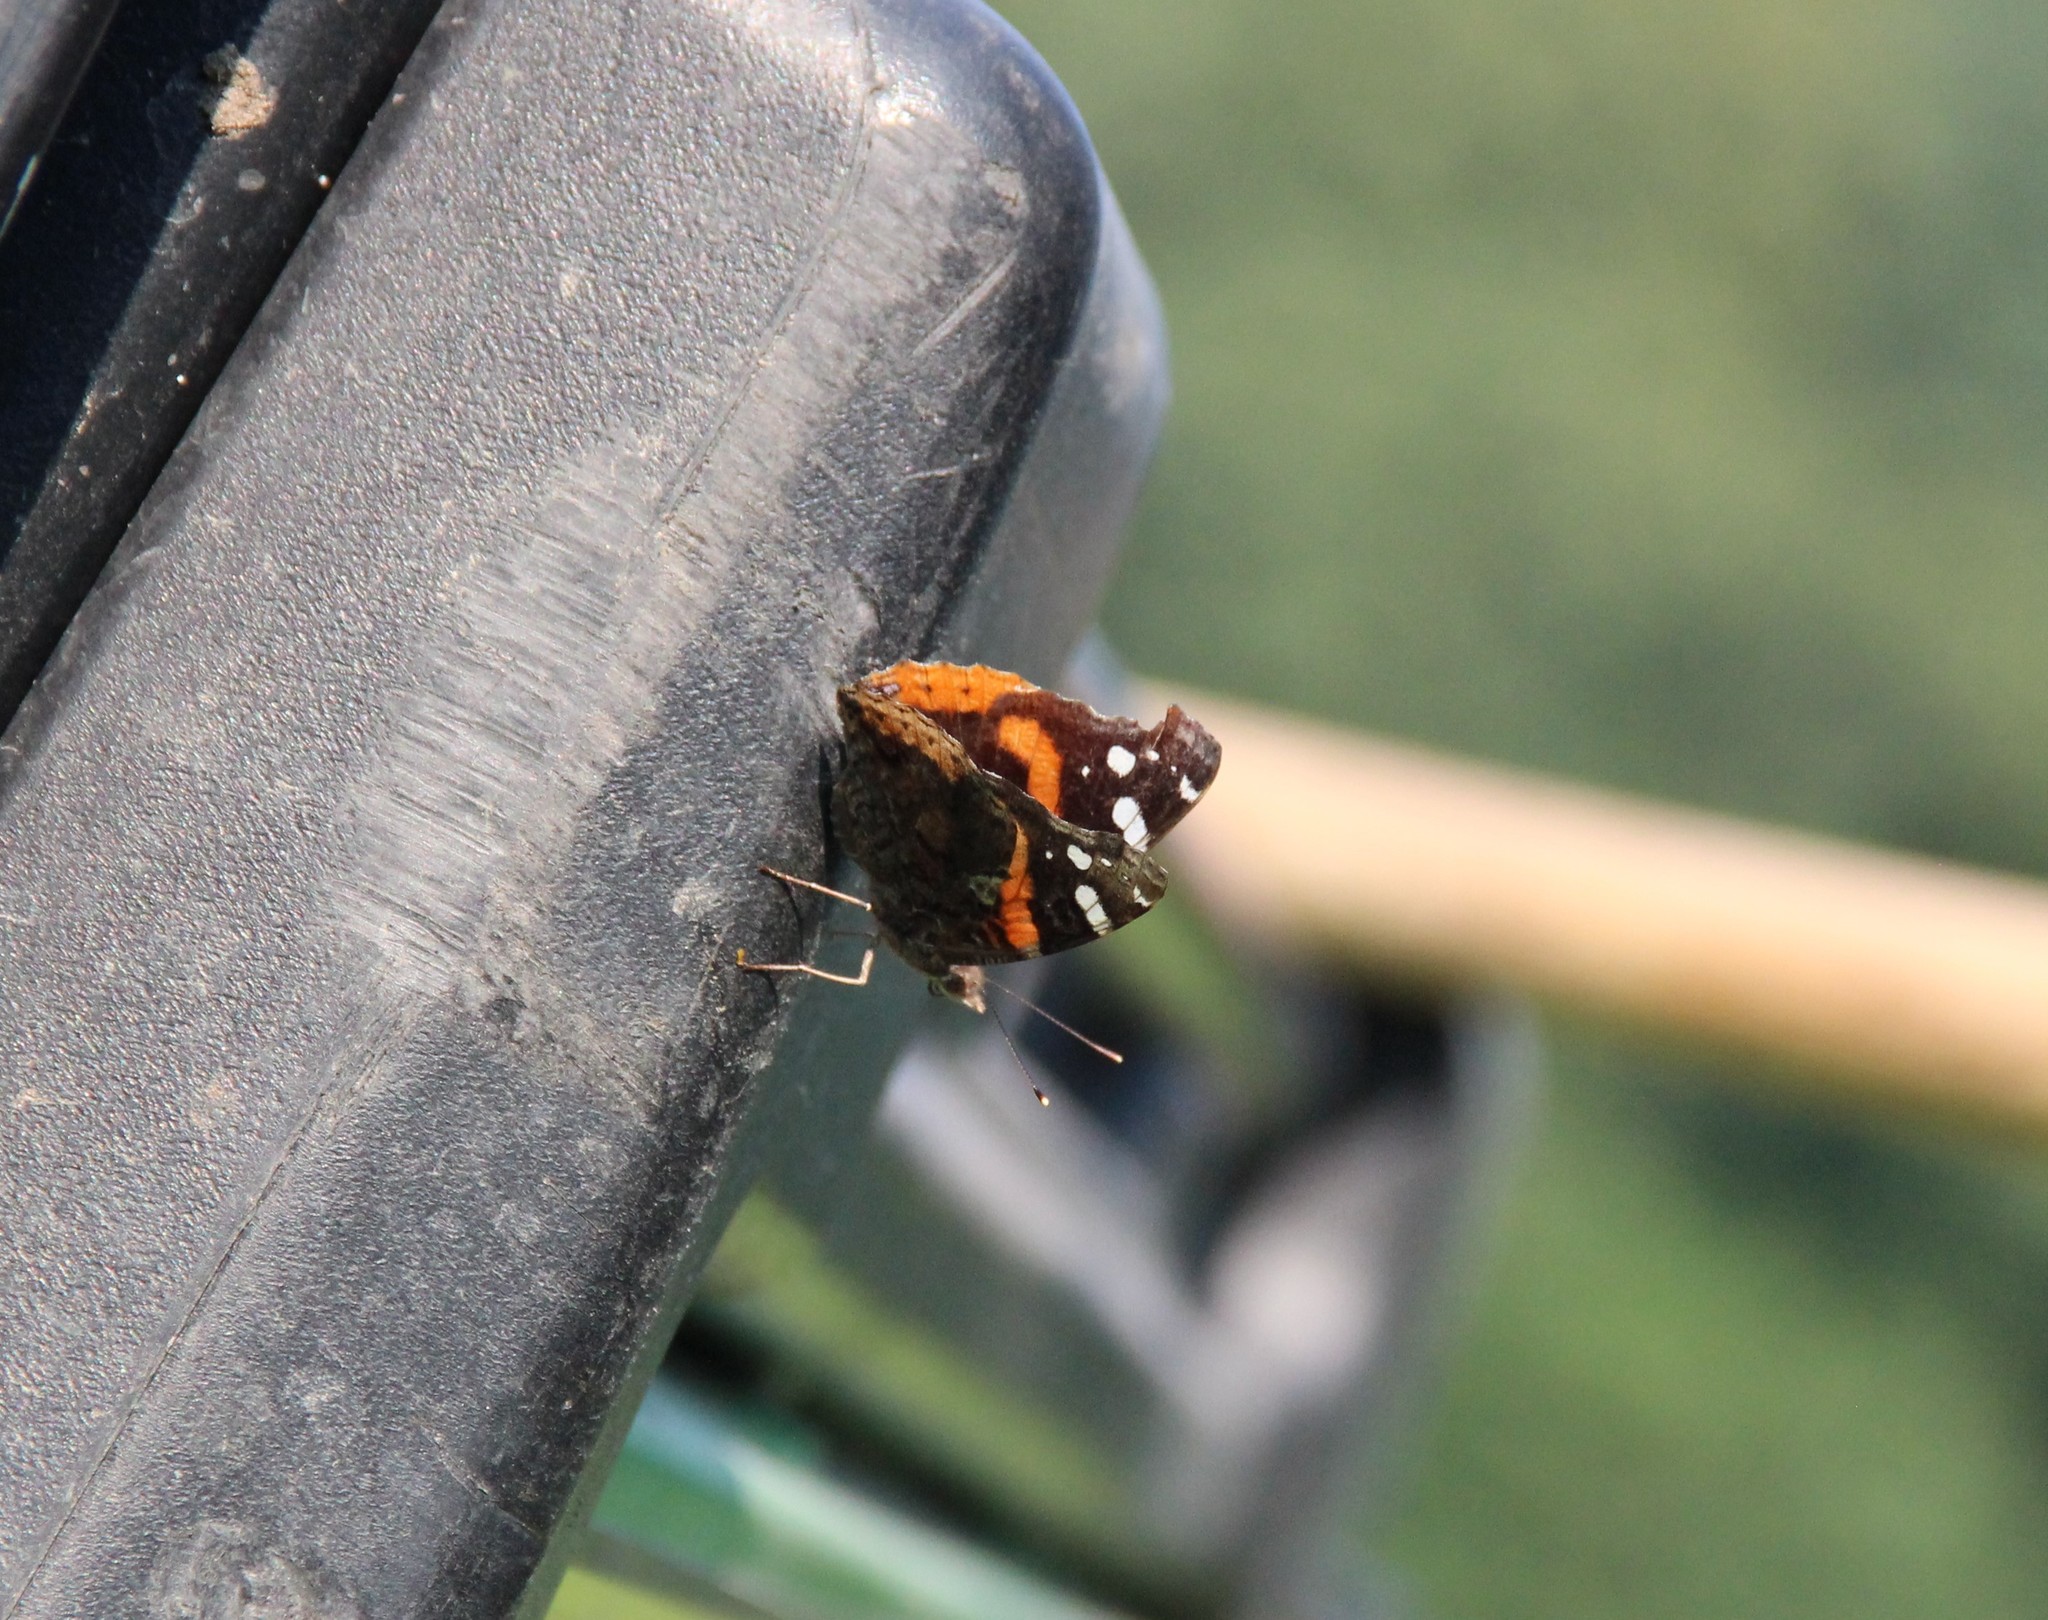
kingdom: Animalia
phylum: Arthropoda
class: Insecta
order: Lepidoptera
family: Nymphalidae
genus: Vanessa
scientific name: Vanessa atalanta
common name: Red admiral
